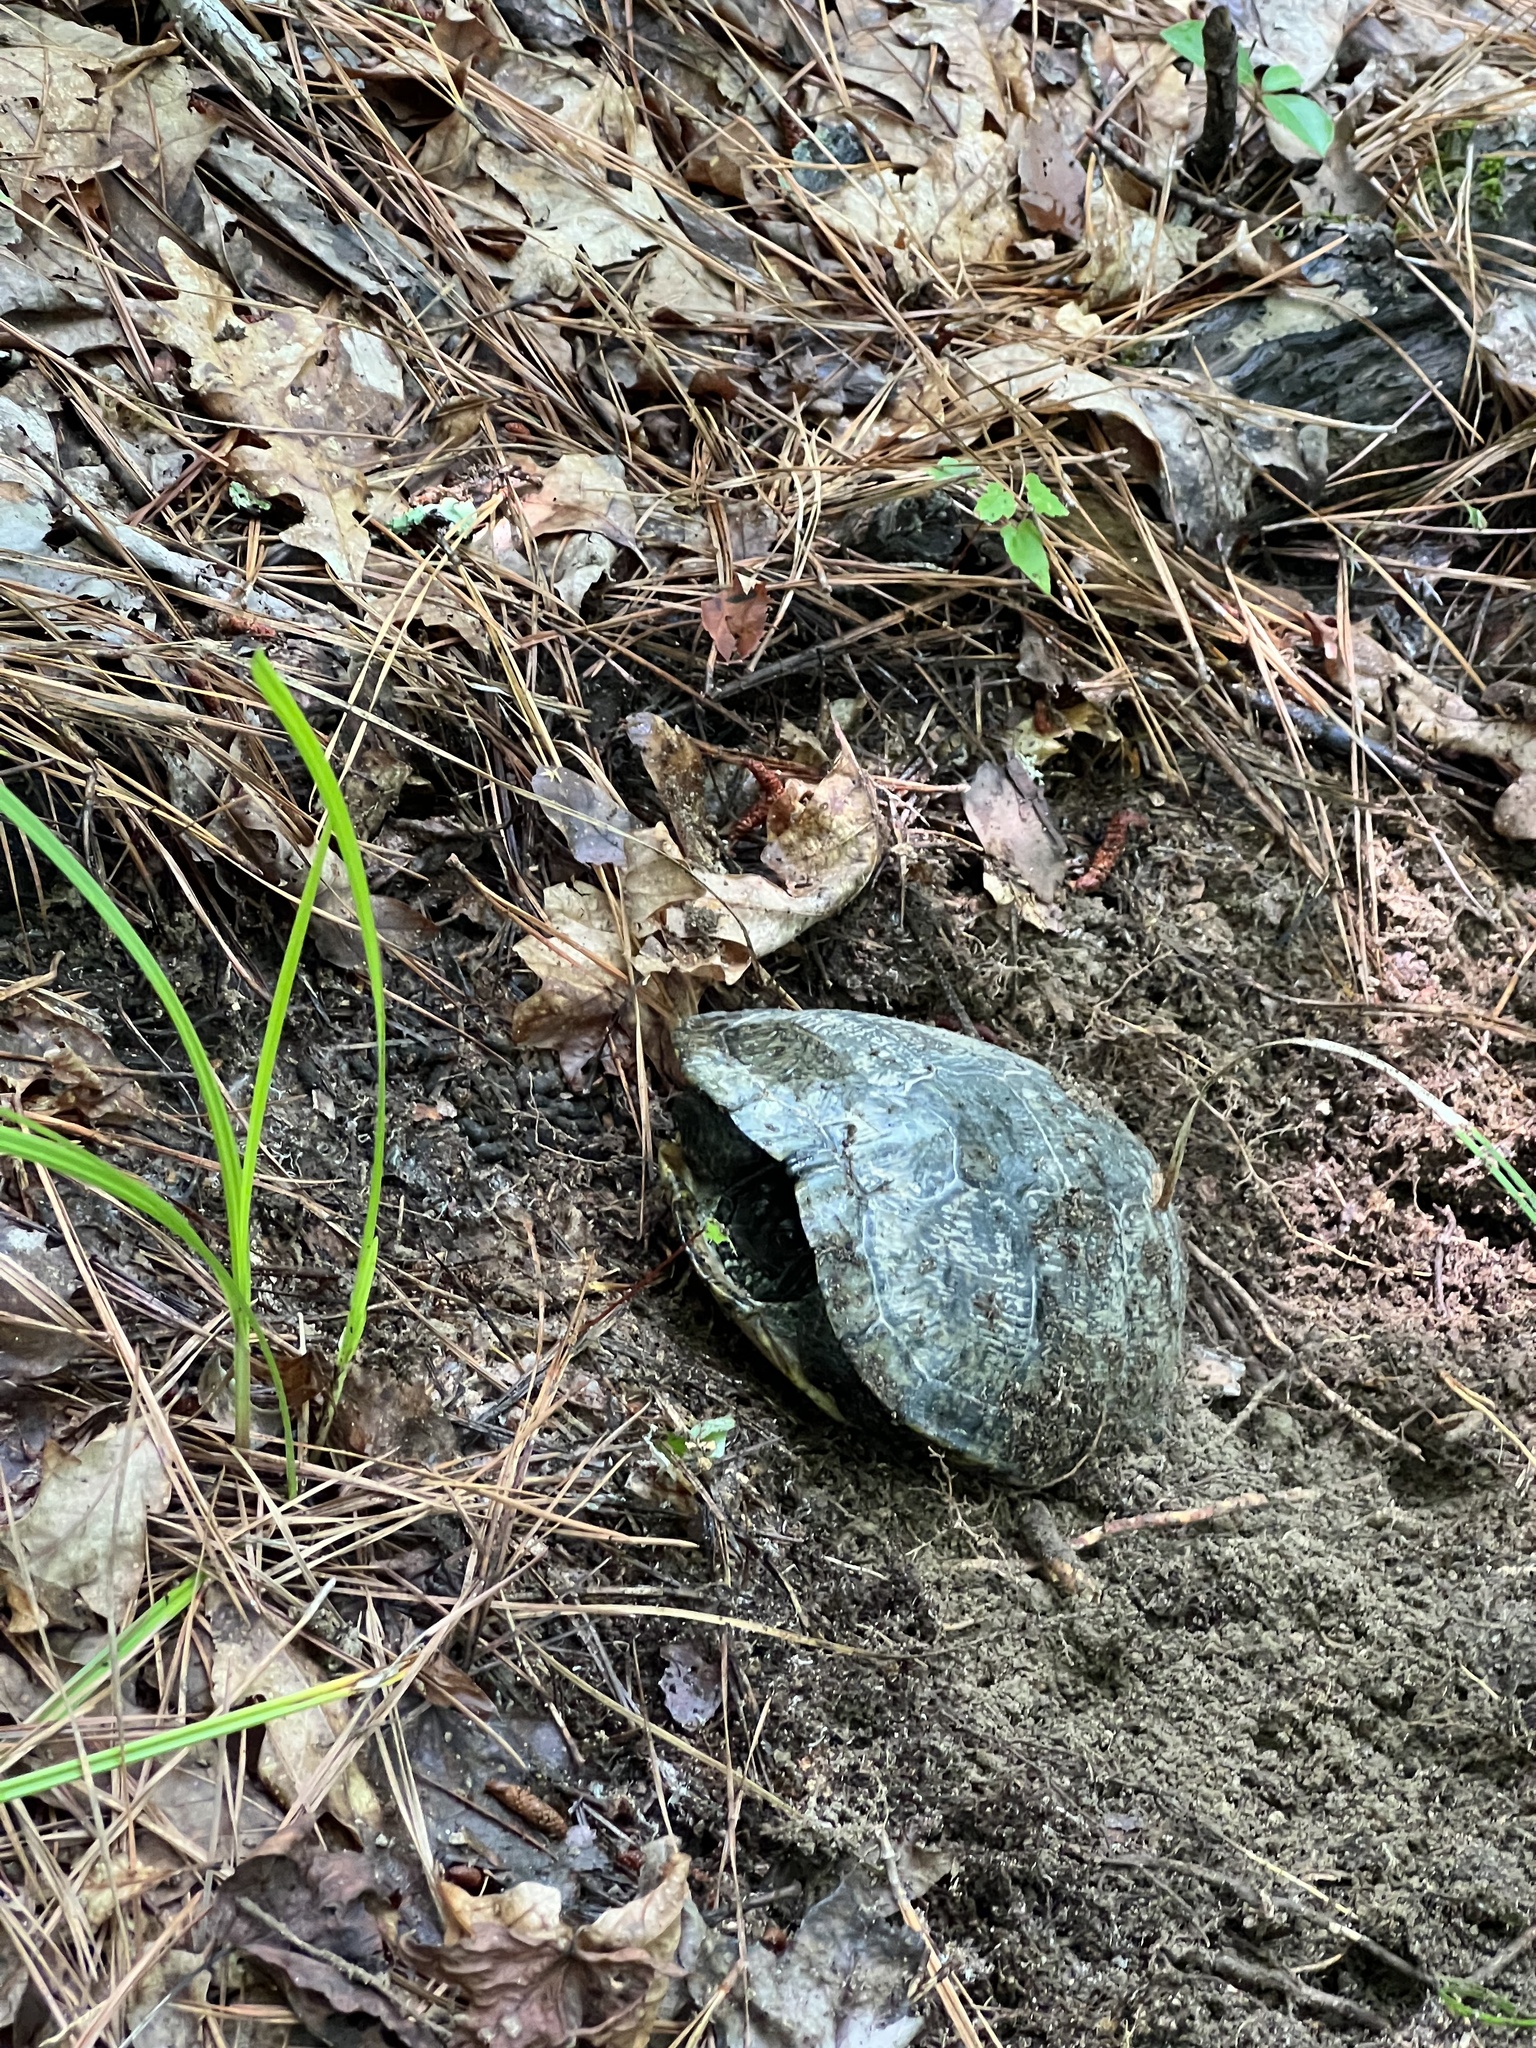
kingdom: Animalia
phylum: Chordata
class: Testudines
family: Emydidae
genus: Trachemys
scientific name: Trachemys scripta
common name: Slider
